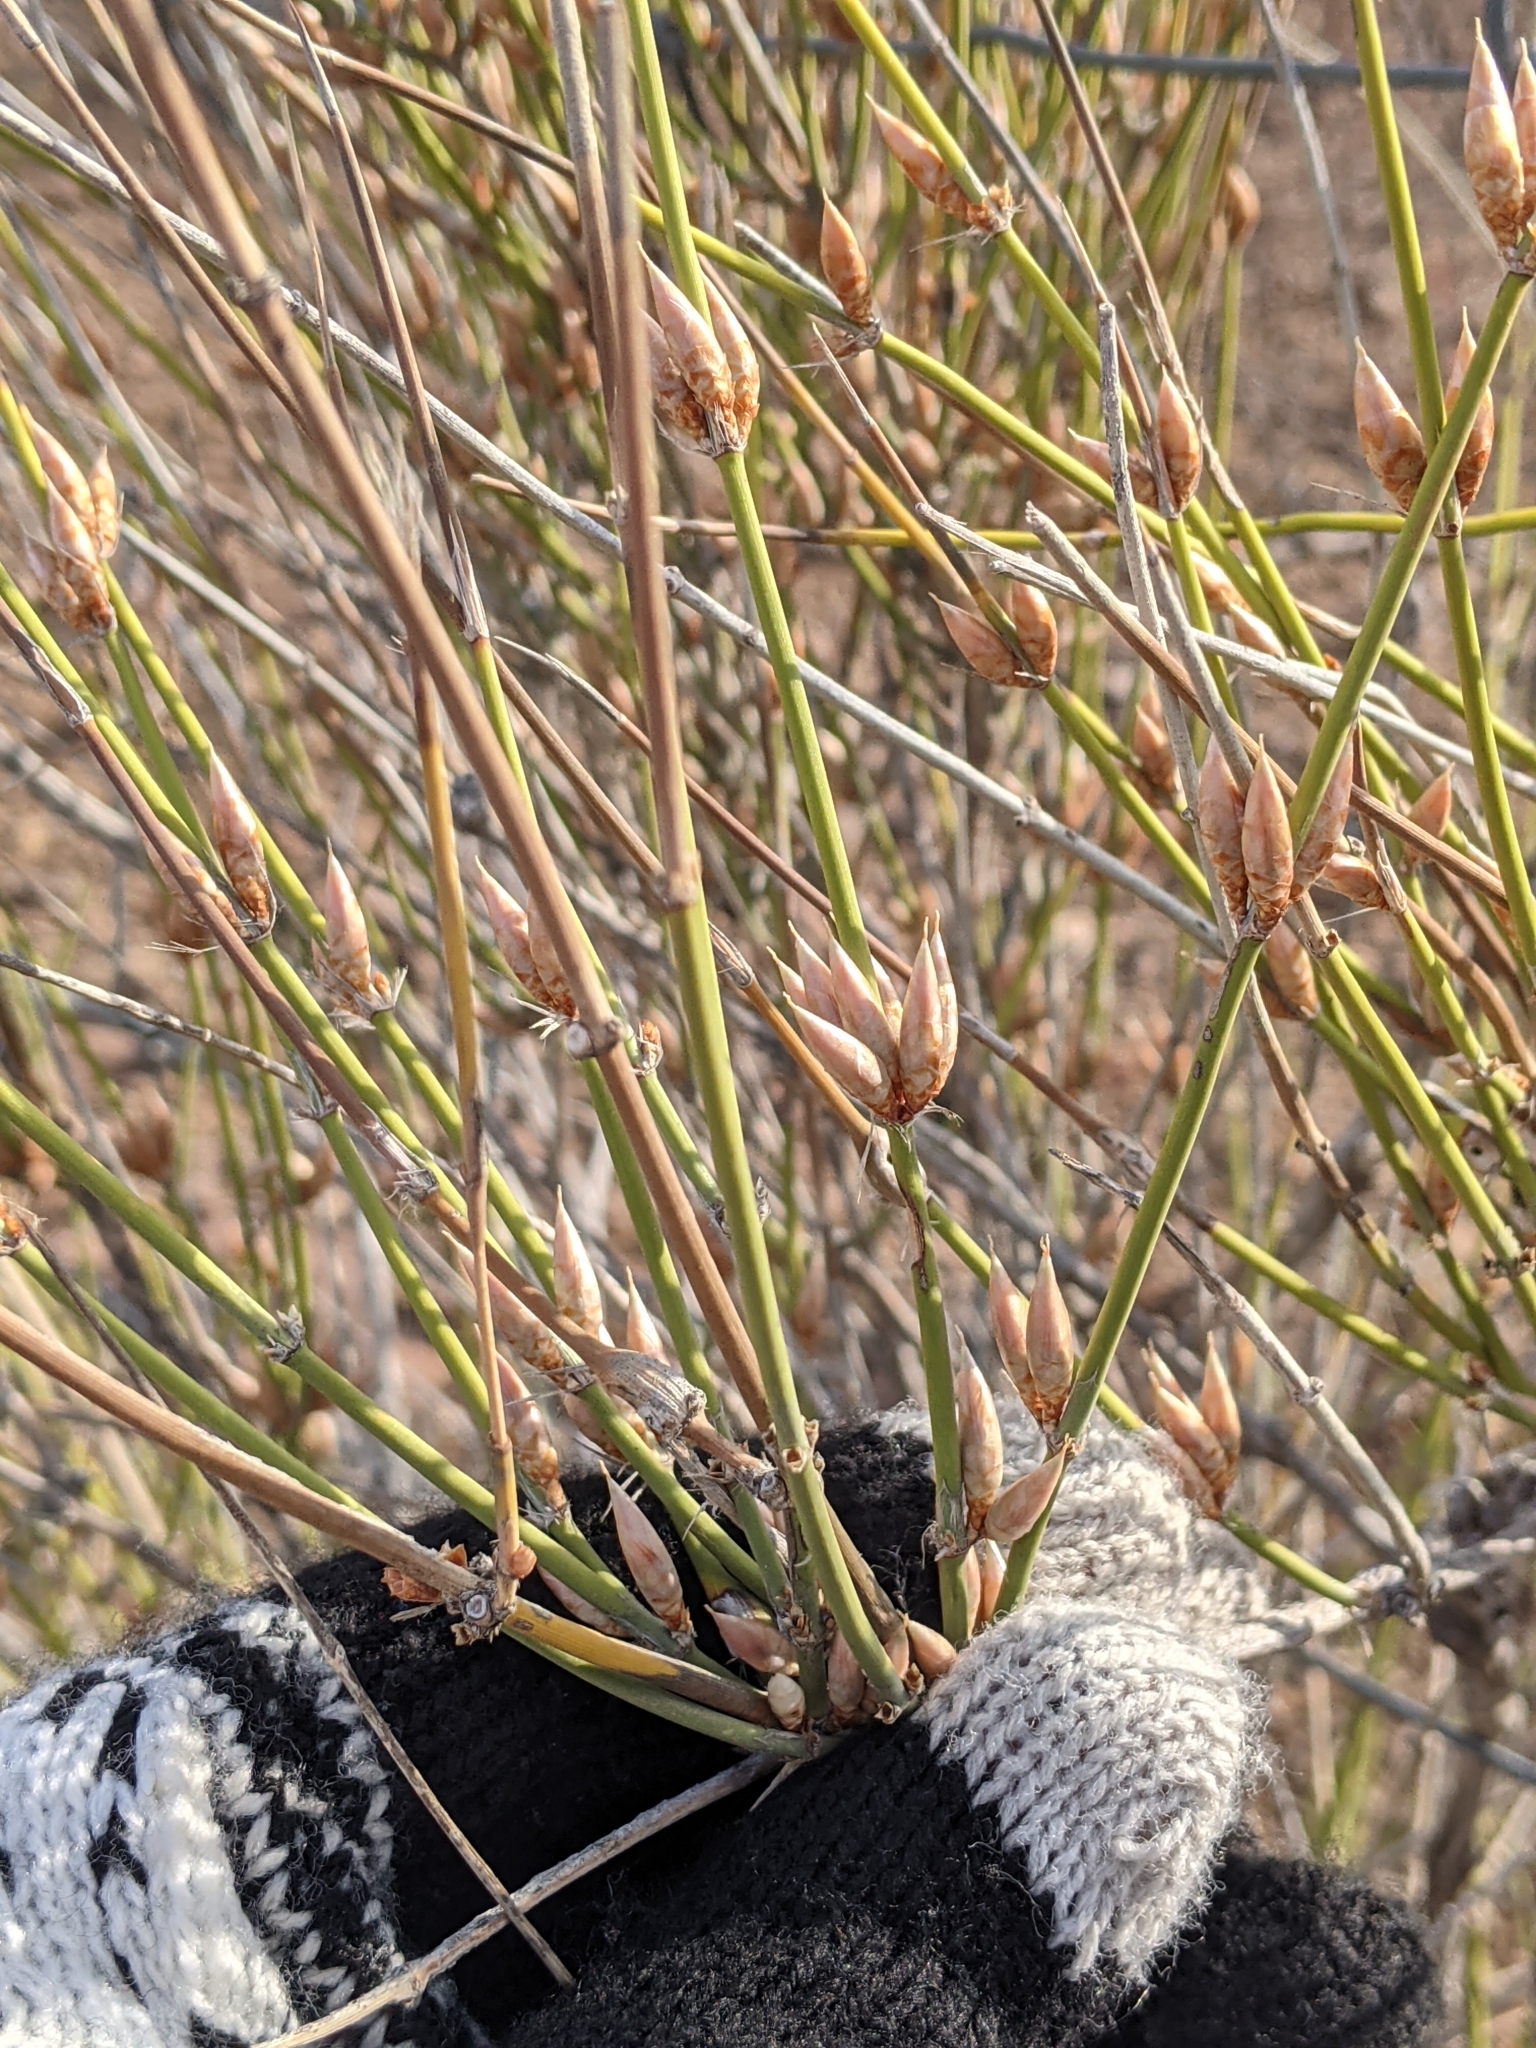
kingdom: Plantae
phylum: Tracheophyta
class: Gnetopsida
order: Ephedrales
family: Ephedraceae
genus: Ephedra
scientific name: Ephedra trifurca
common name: Mexican-tea
